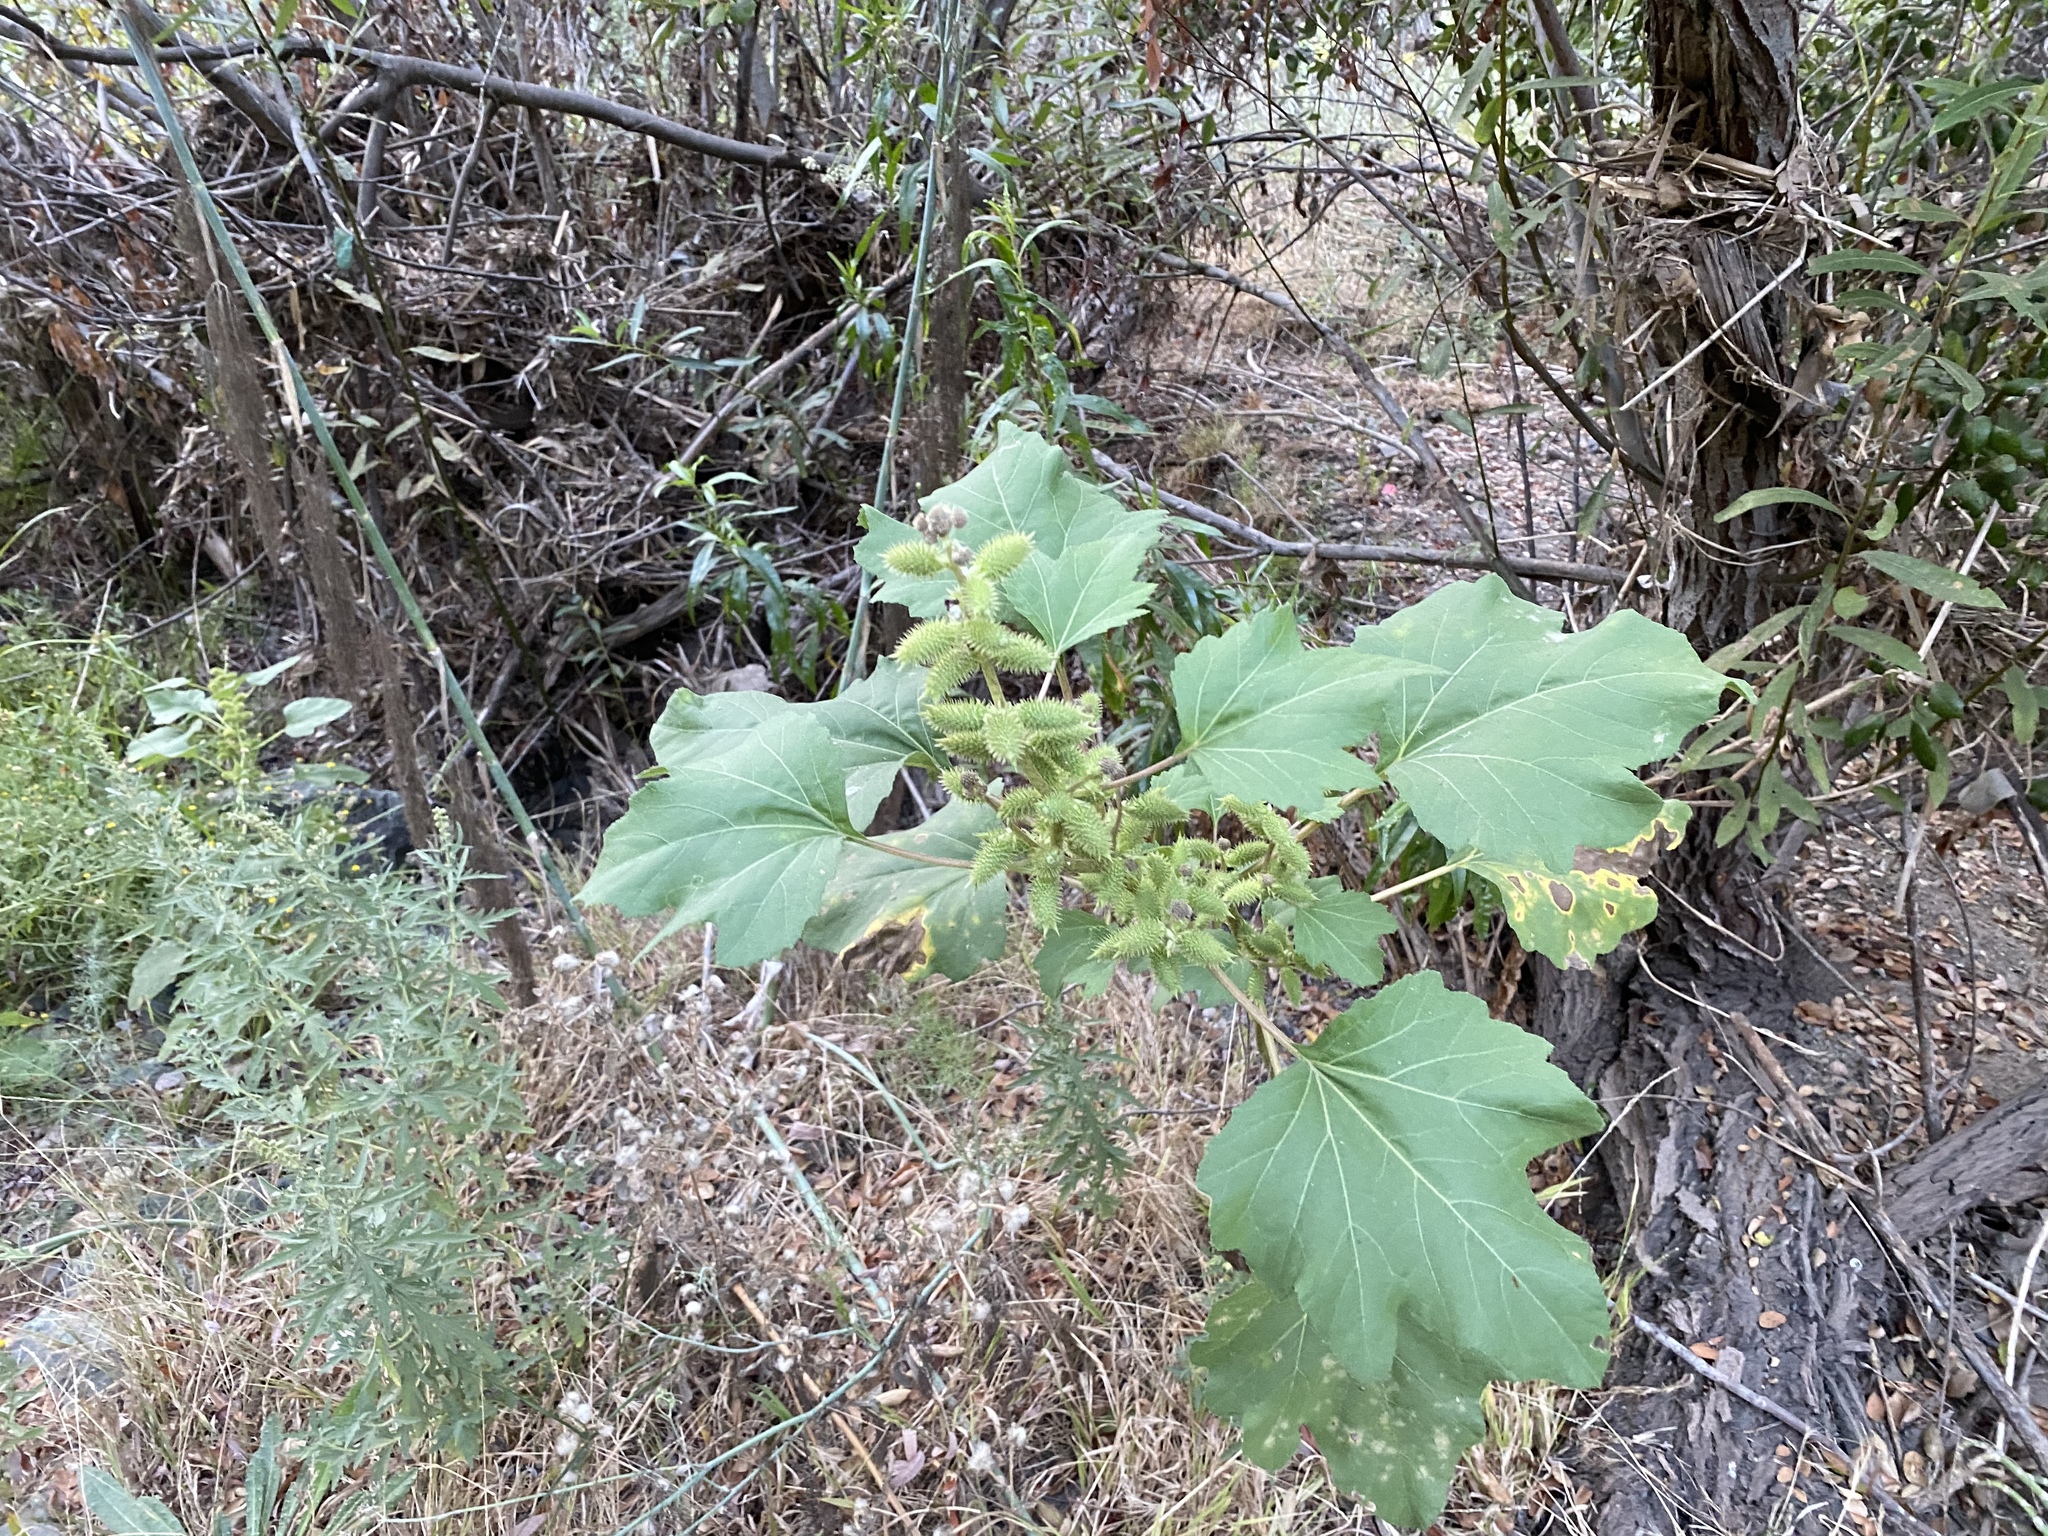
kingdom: Plantae
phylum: Tracheophyta
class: Magnoliopsida
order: Asterales
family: Asteraceae
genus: Xanthium
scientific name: Xanthium strumarium
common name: Rough cocklebur
